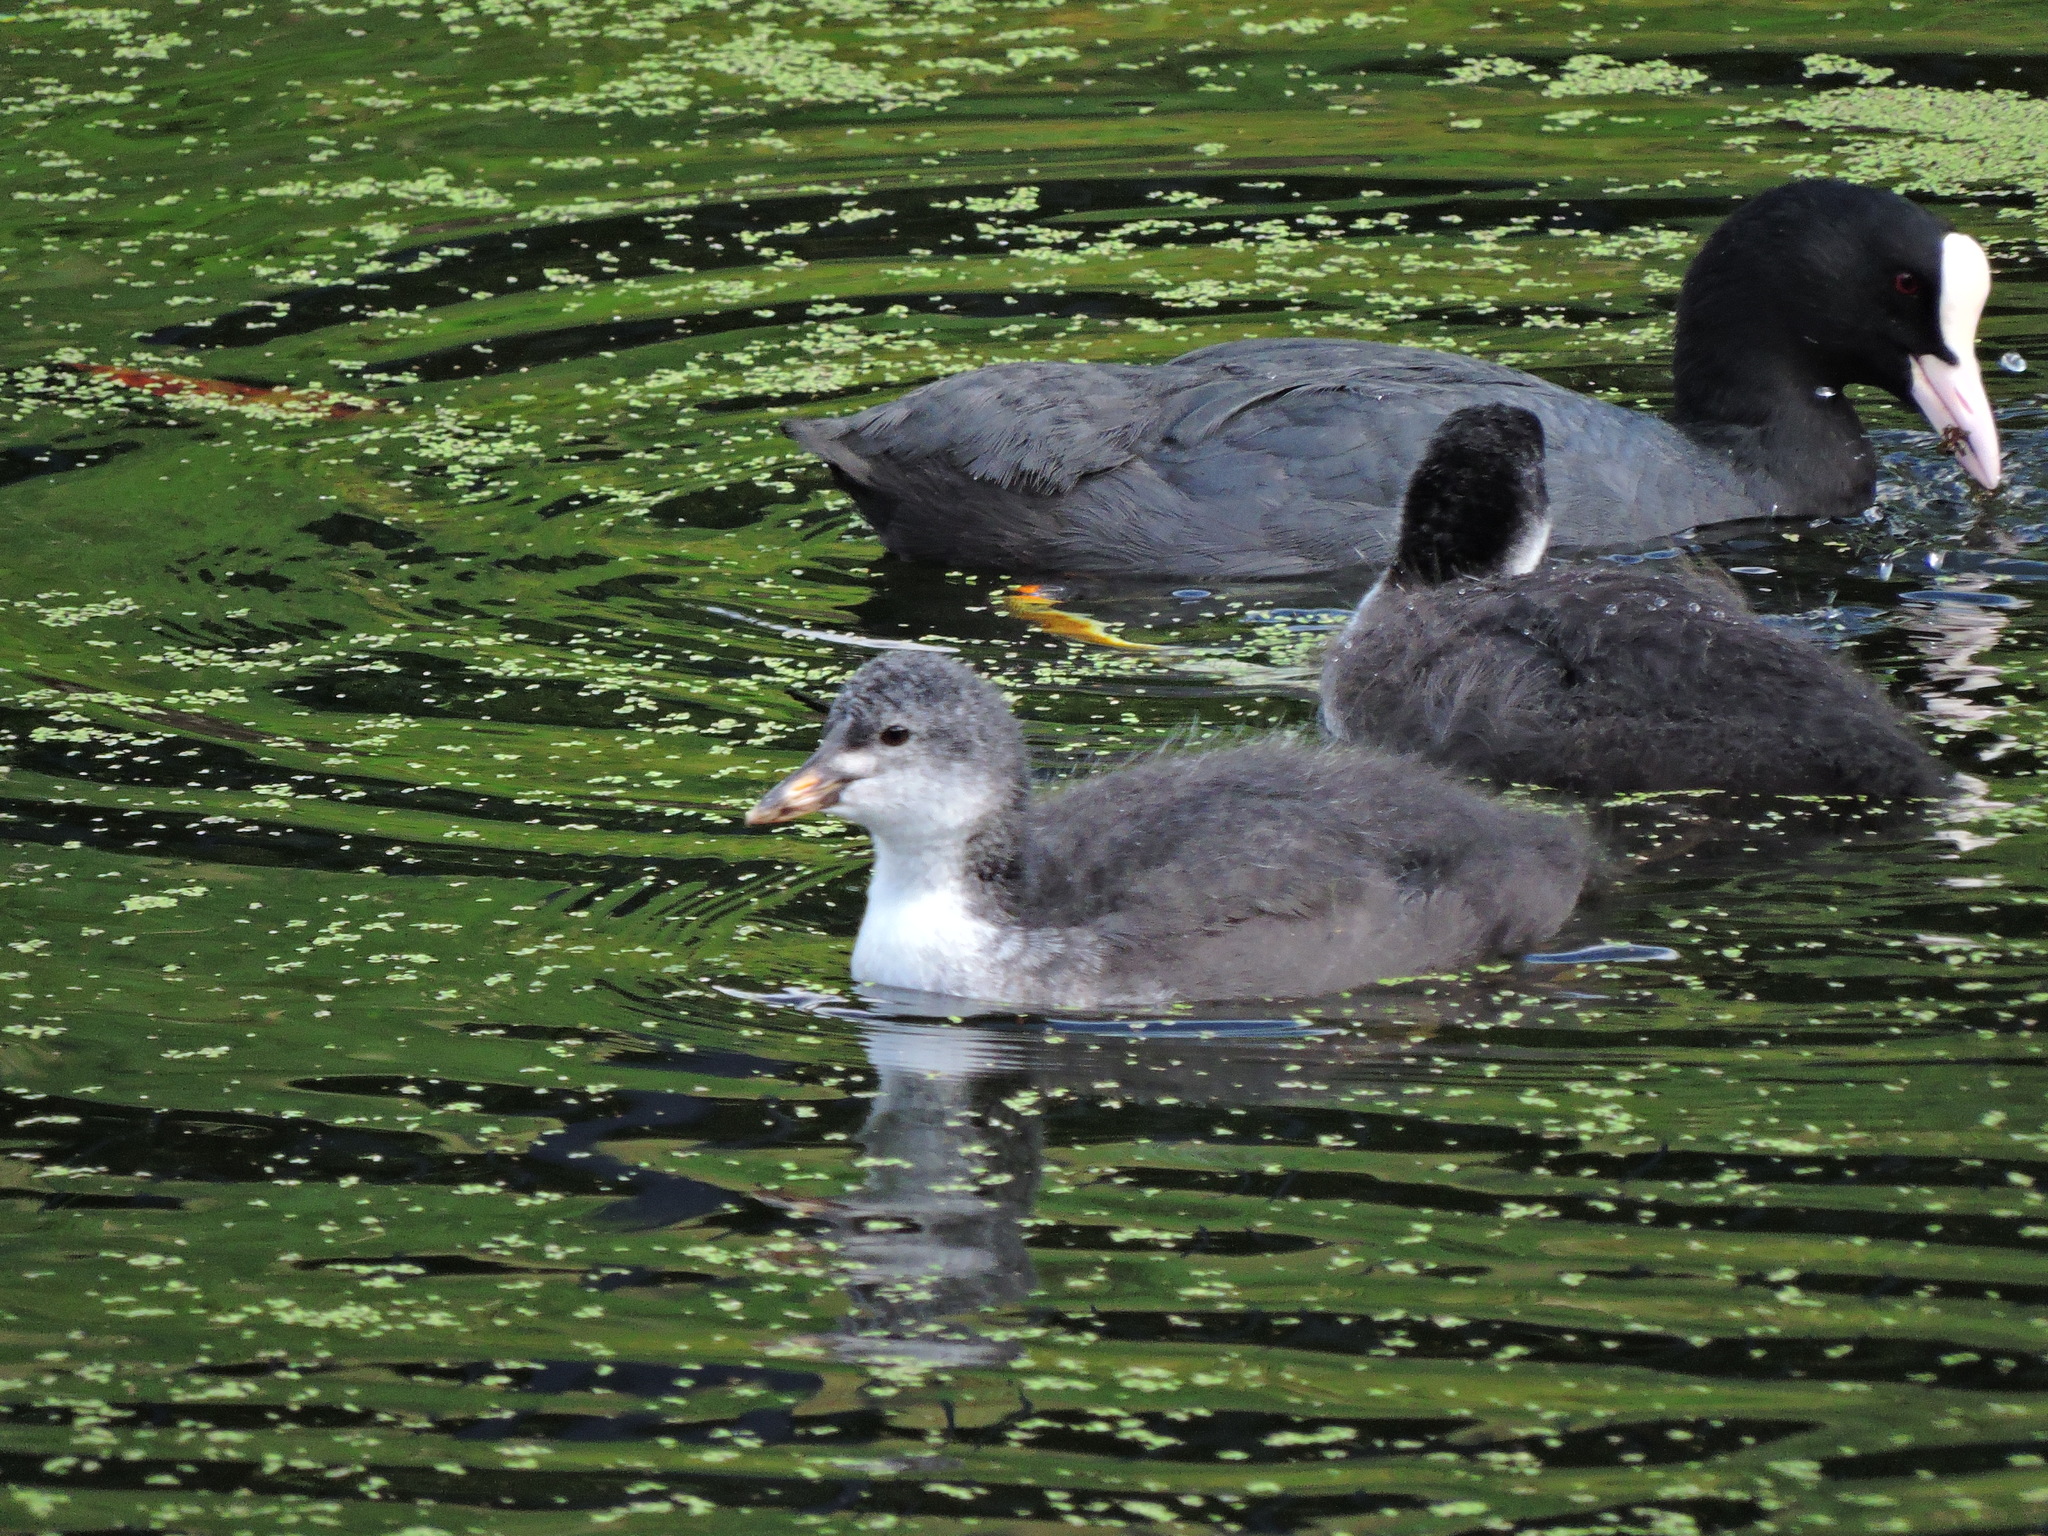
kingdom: Animalia
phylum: Chordata
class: Aves
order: Gruiformes
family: Rallidae
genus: Fulica
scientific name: Fulica atra
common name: Eurasian coot
